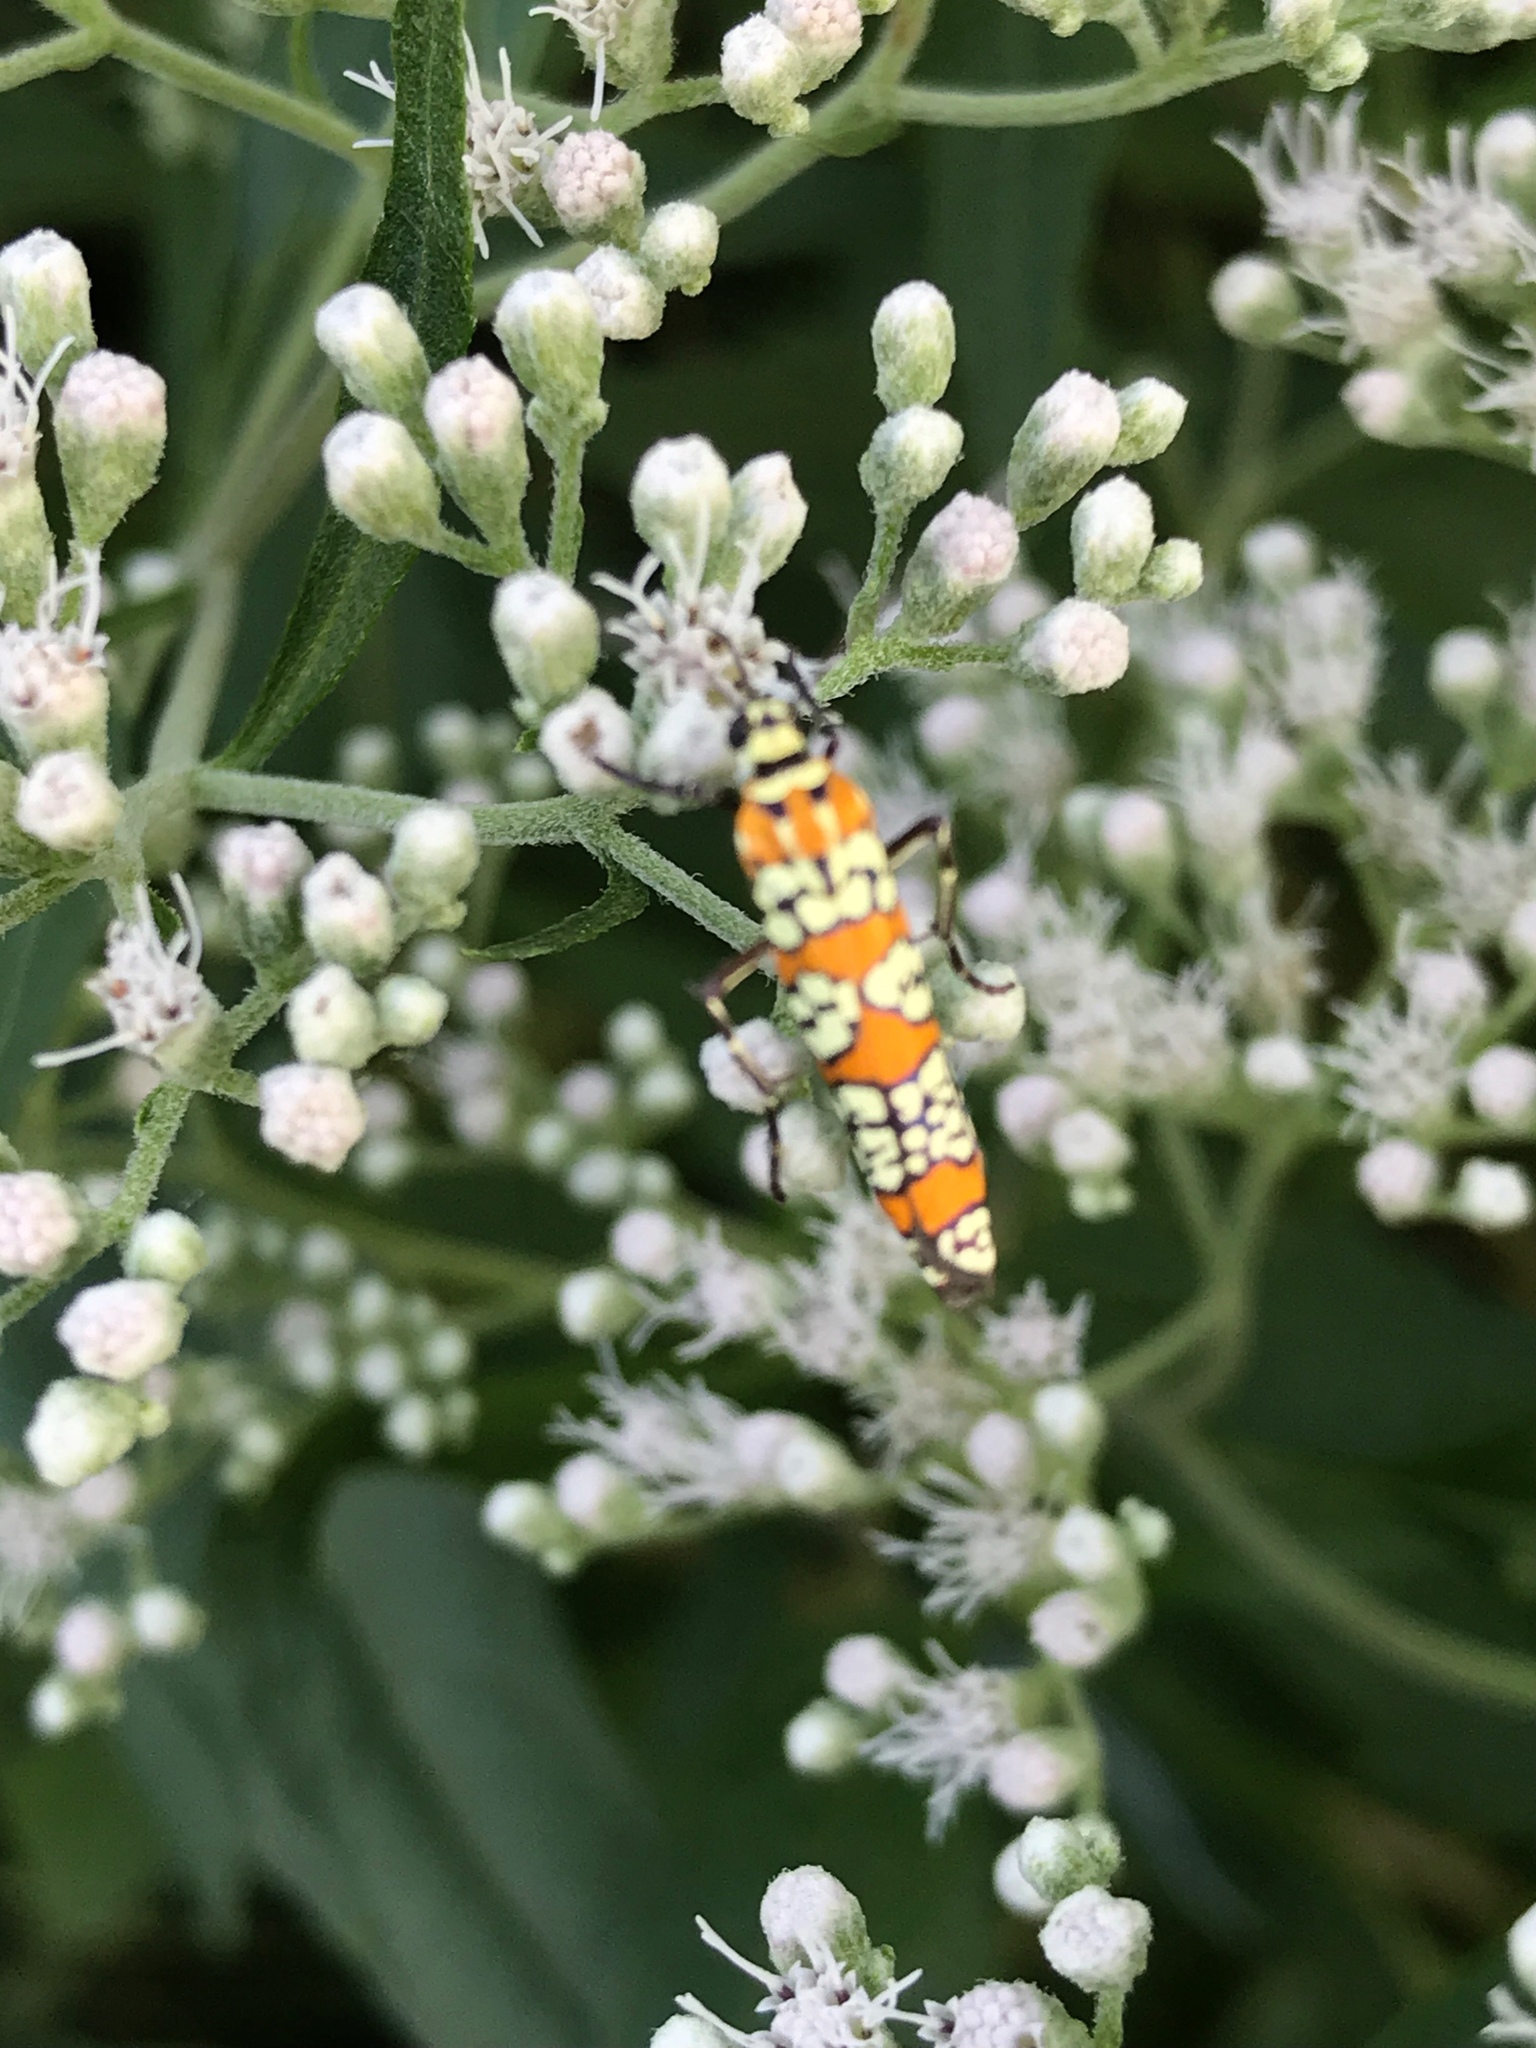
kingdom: Animalia
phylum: Arthropoda
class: Insecta
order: Lepidoptera
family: Attevidae
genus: Atteva
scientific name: Atteva punctella
